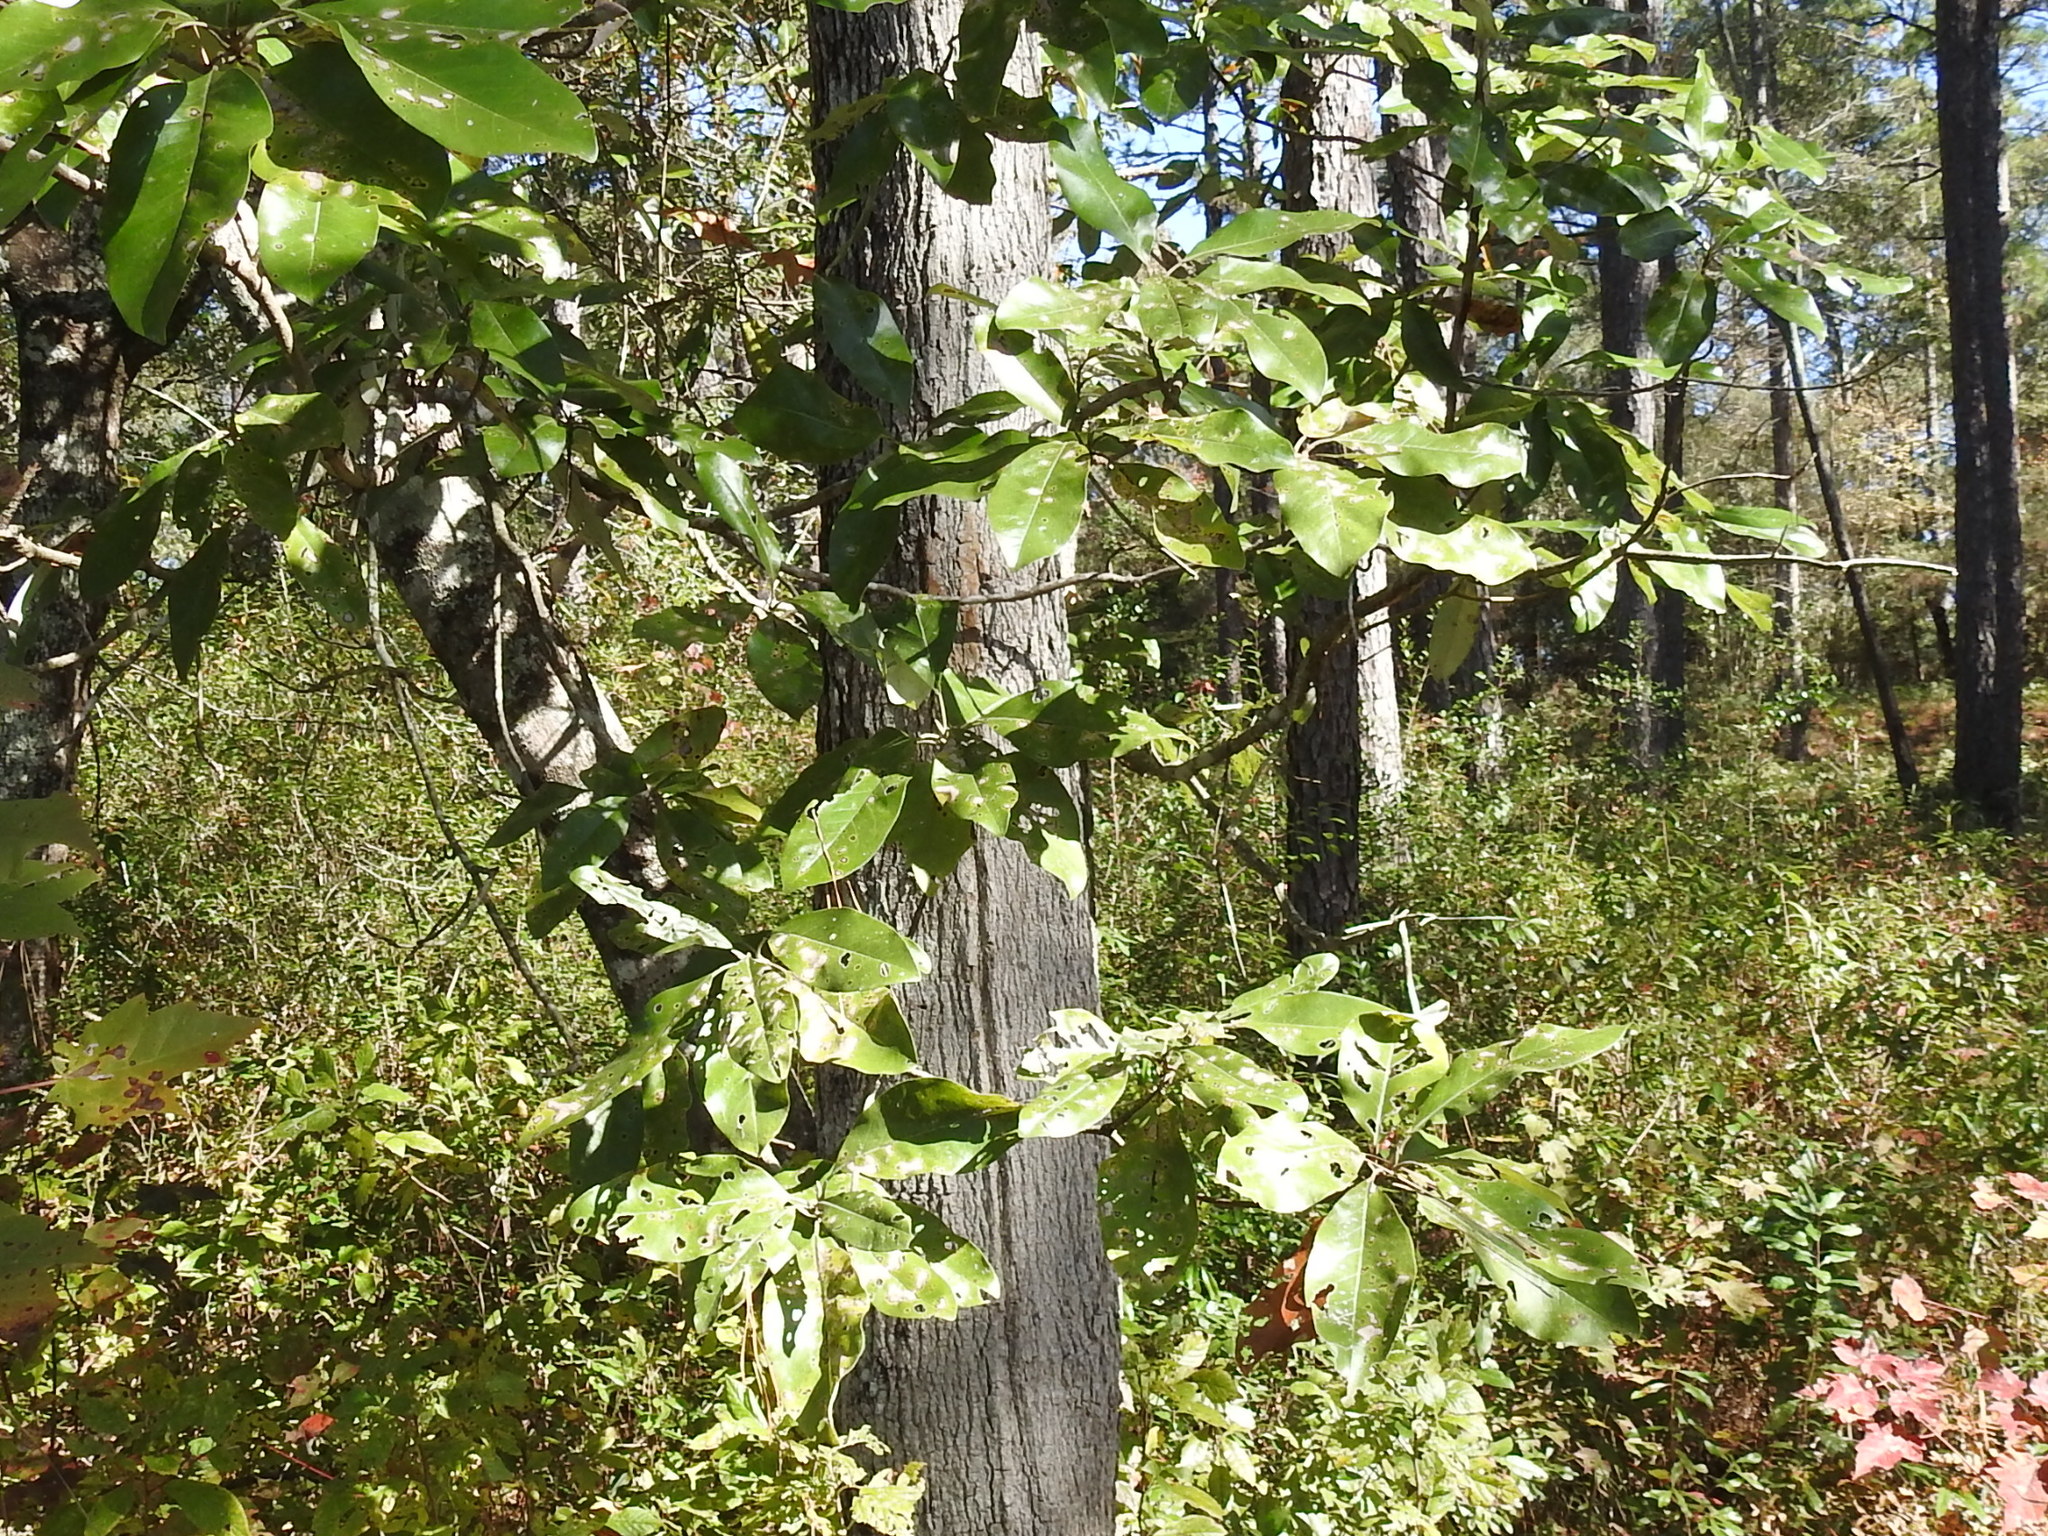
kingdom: Plantae
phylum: Tracheophyta
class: Magnoliopsida
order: Magnoliales
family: Magnoliaceae
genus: Magnolia
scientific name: Magnolia virginiana
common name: Swamp bay
